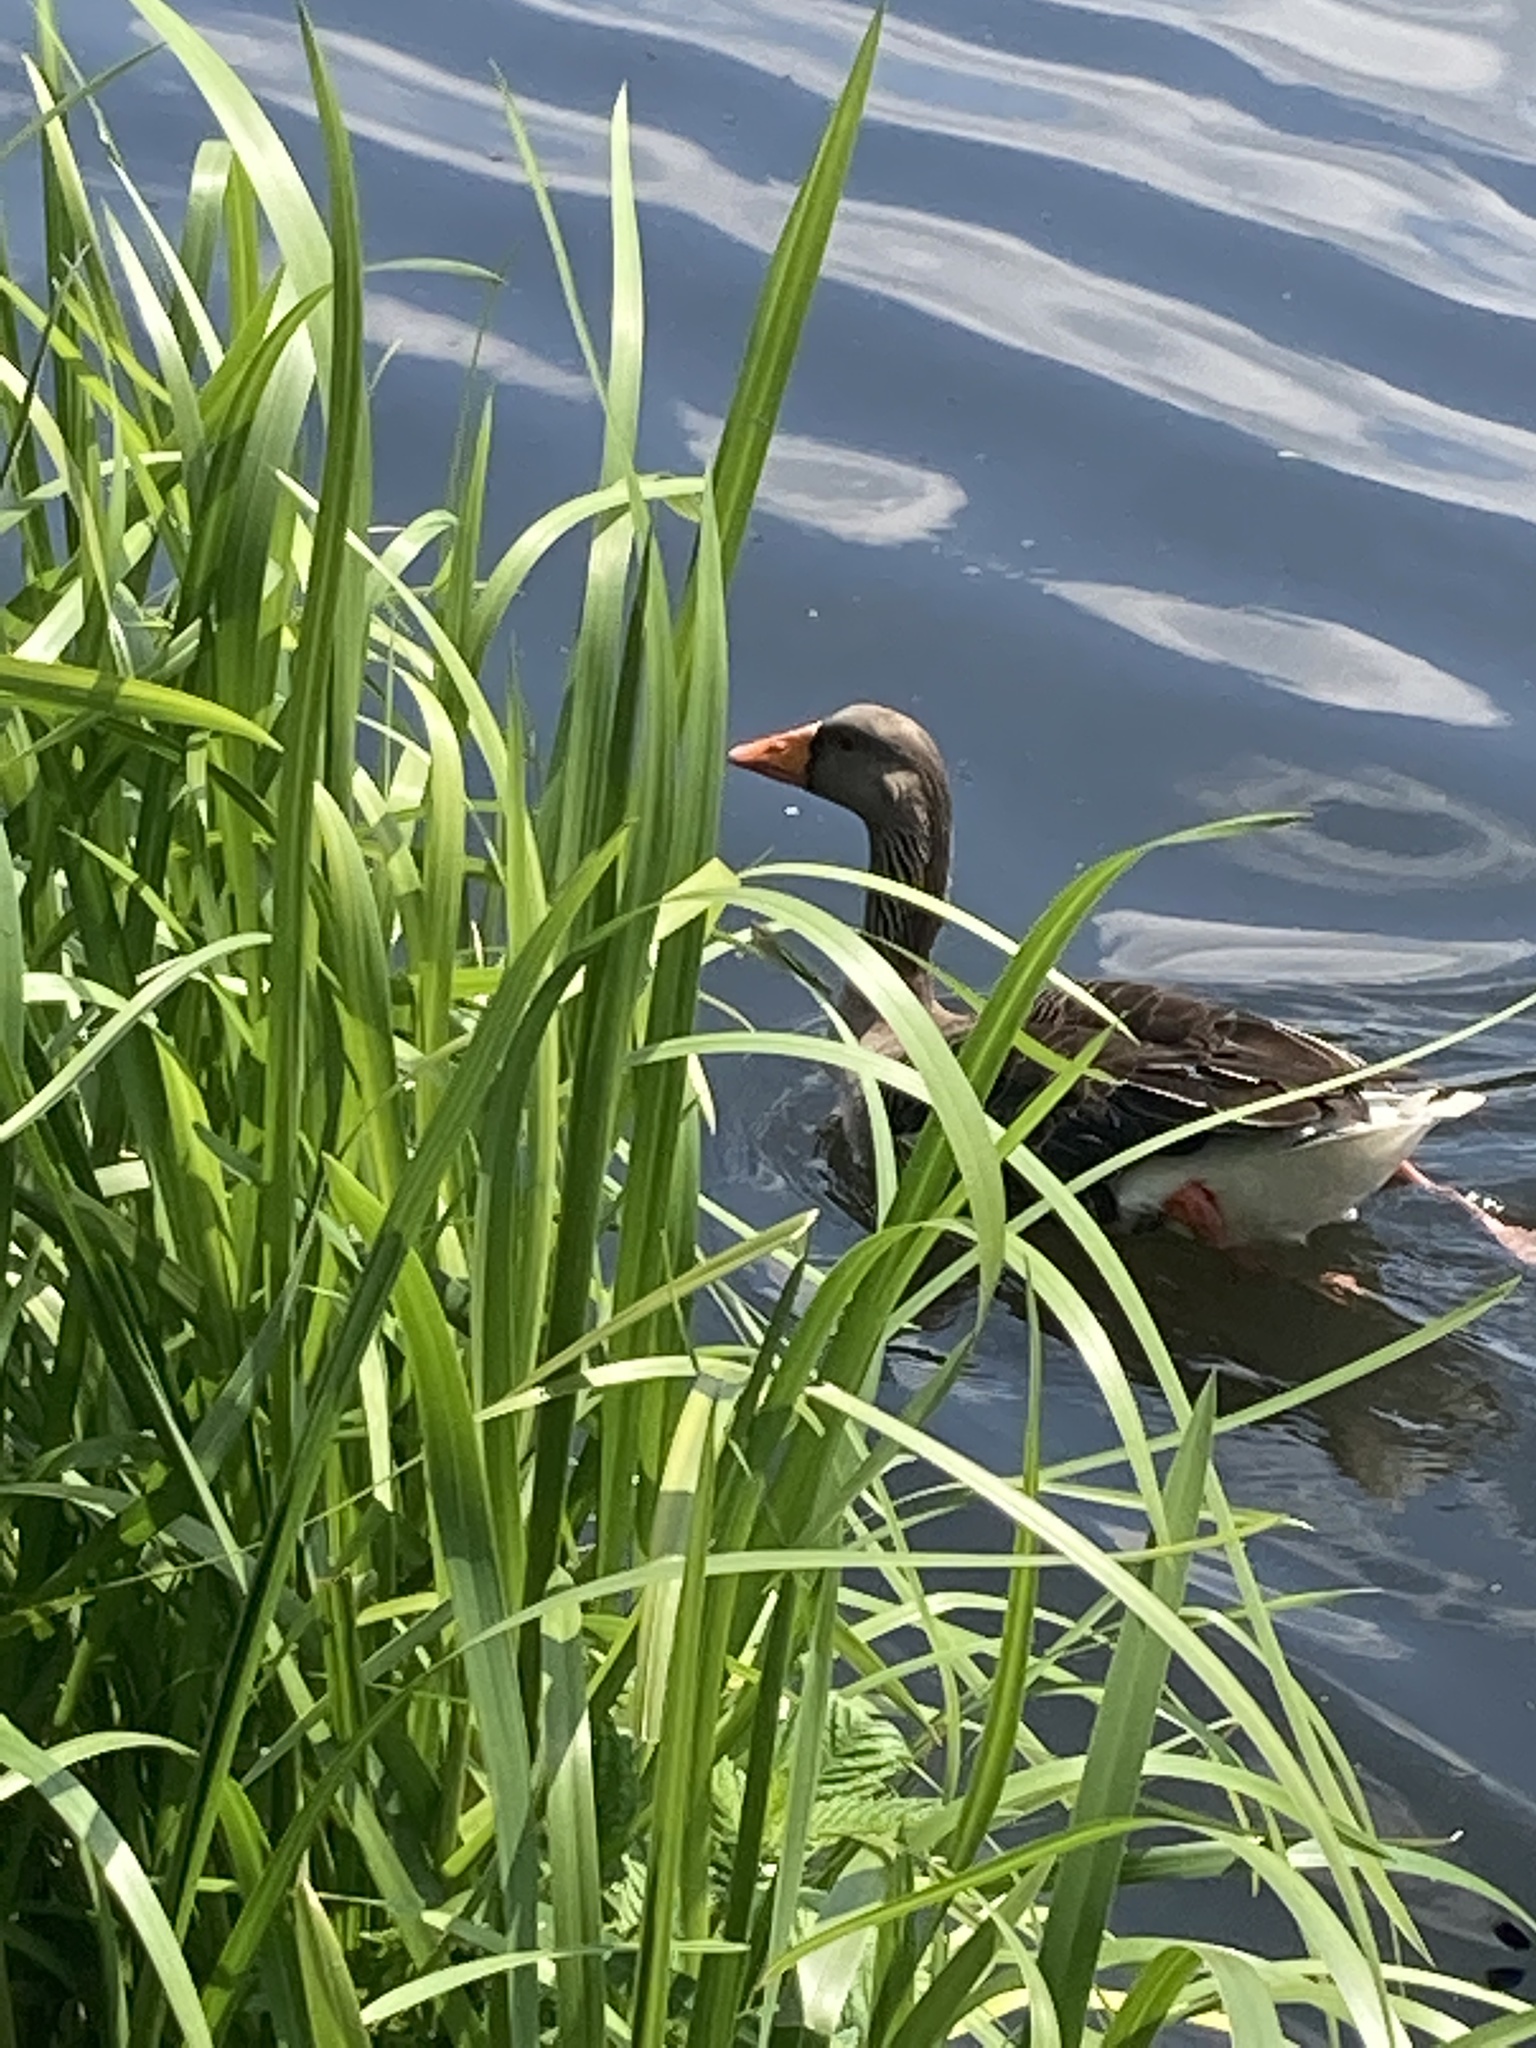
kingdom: Animalia
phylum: Chordata
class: Aves
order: Anseriformes
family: Anatidae
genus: Anser
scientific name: Anser anser
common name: Greylag goose
